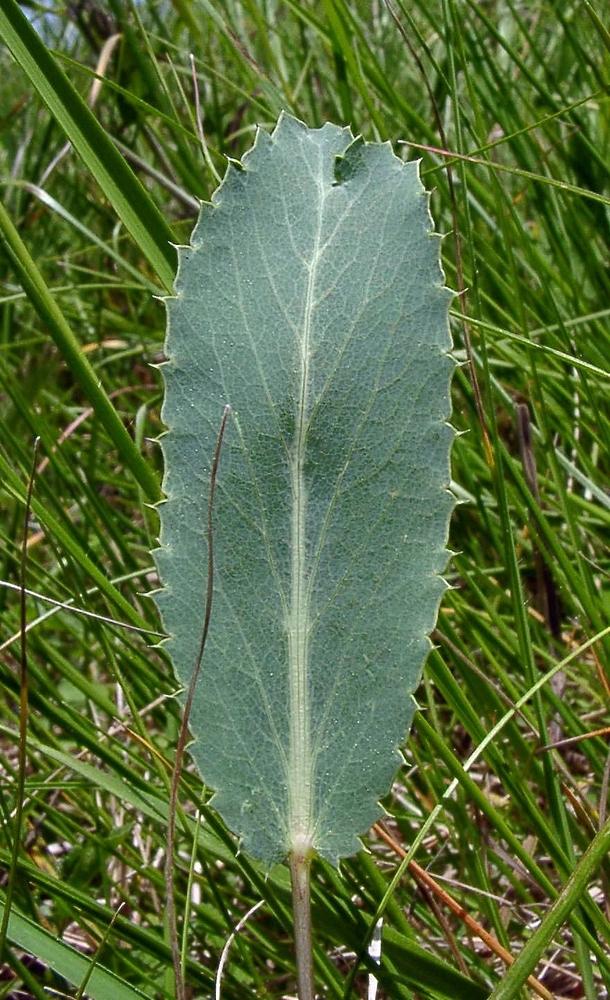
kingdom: Plantae
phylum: Tracheophyta
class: Magnoliopsida
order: Apiales
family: Apiaceae
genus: Eryngium
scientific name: Eryngium campestre
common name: Field eryngo
